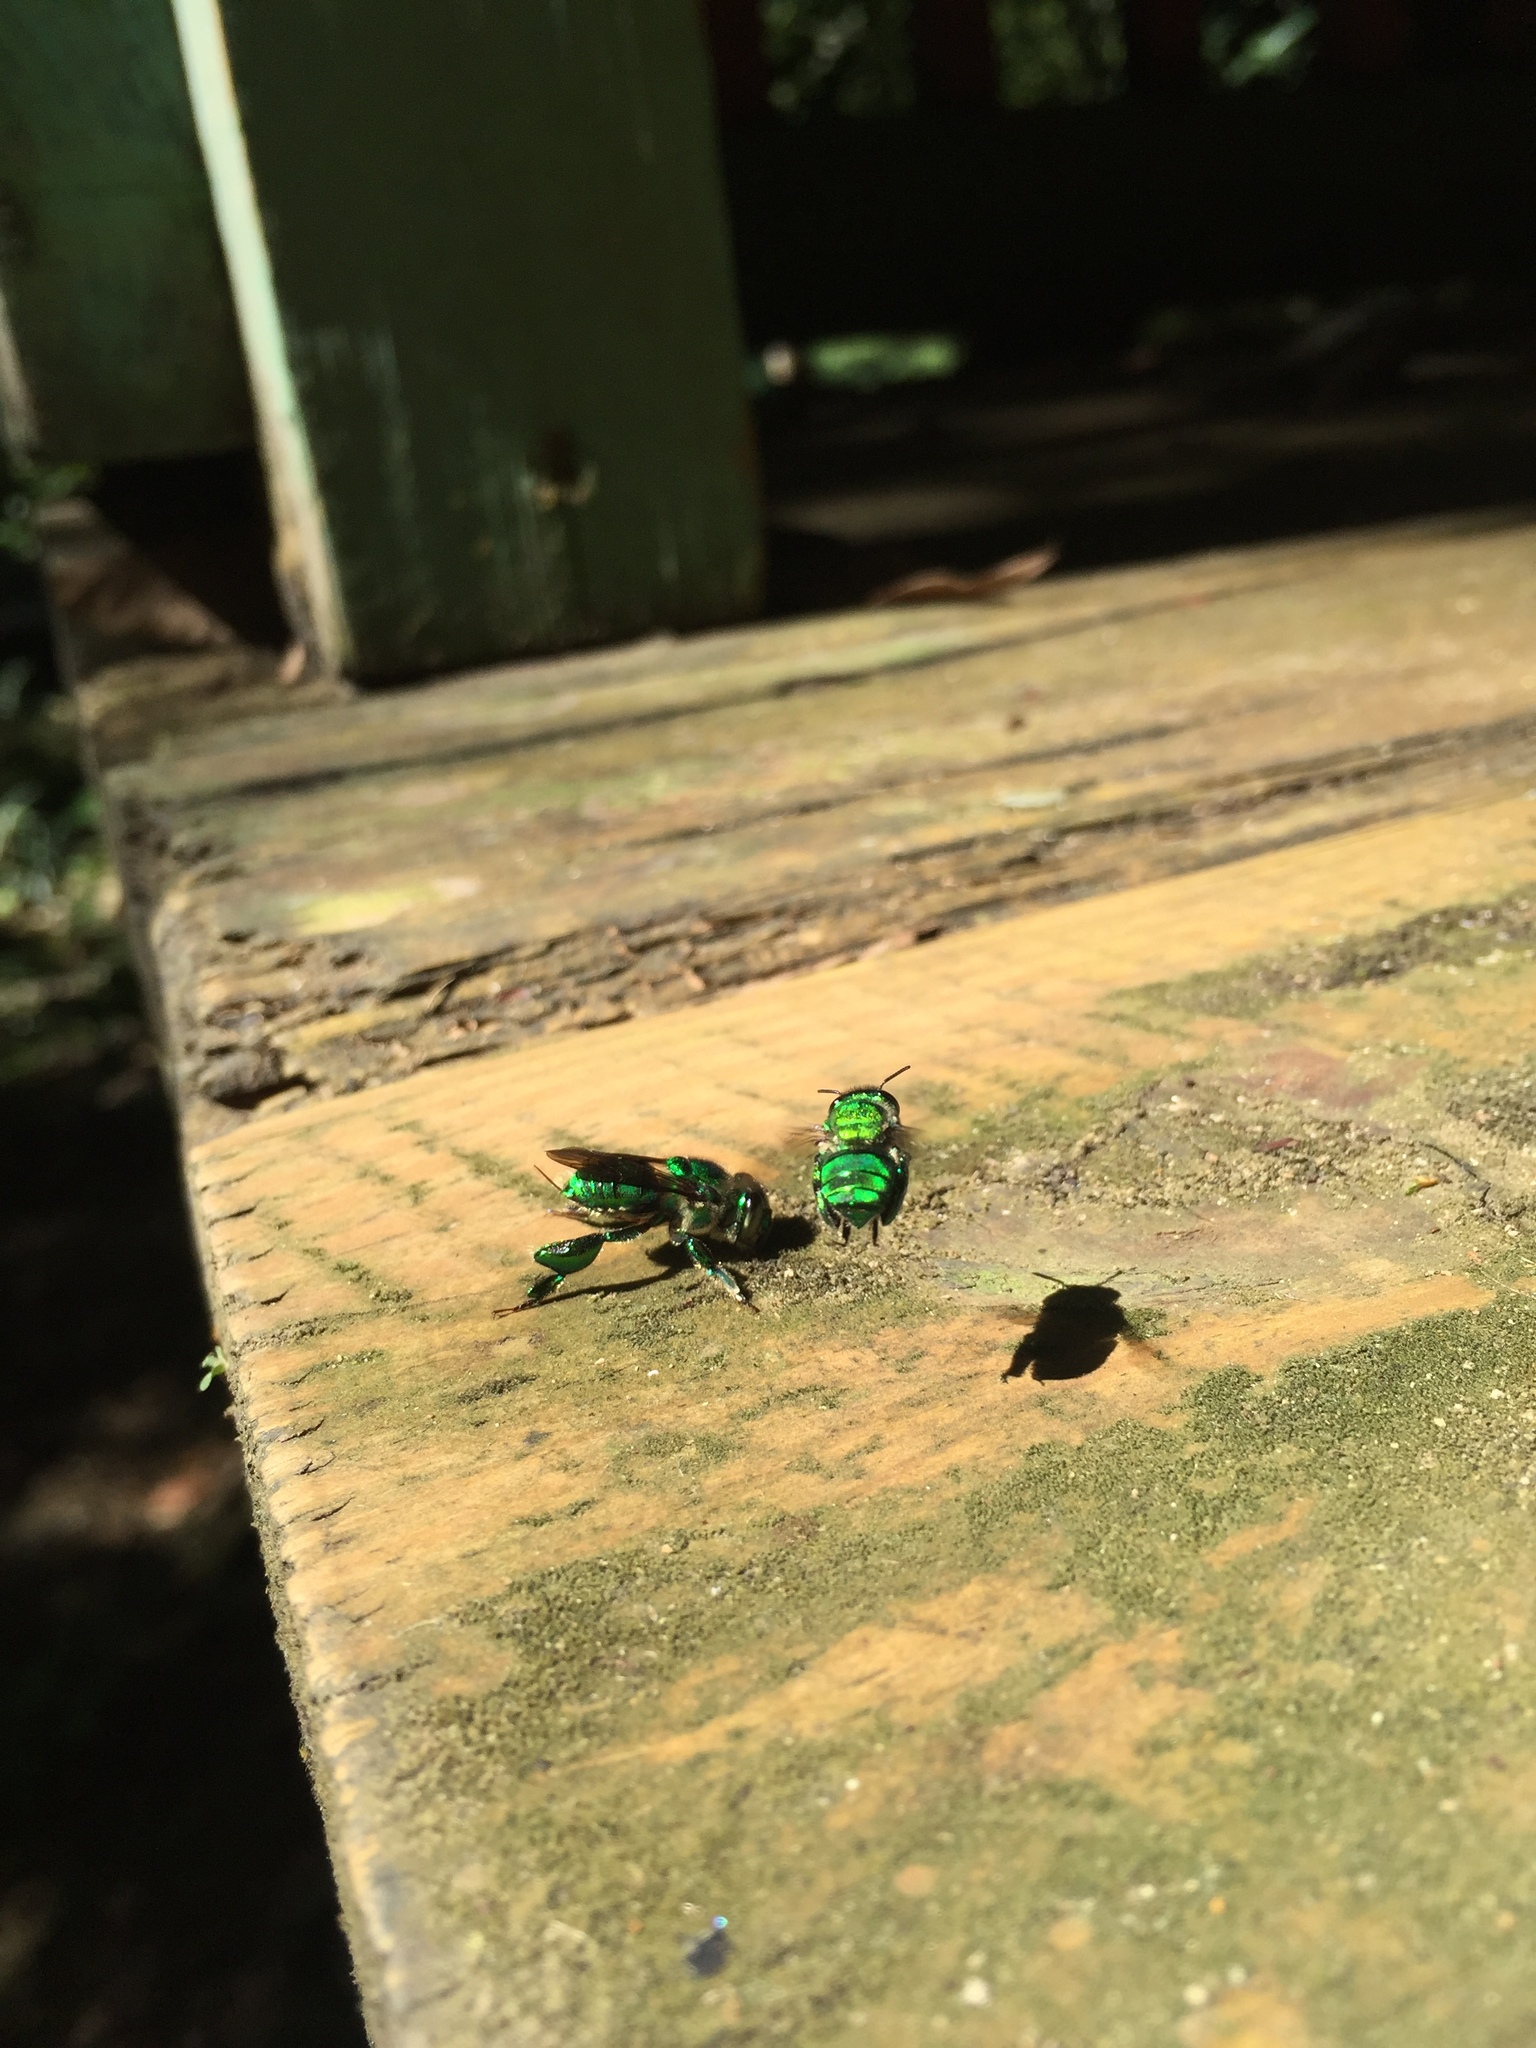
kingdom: Animalia
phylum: Arthropoda
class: Insecta
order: Hymenoptera
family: Apidae
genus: Euglossa
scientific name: Euglossa
